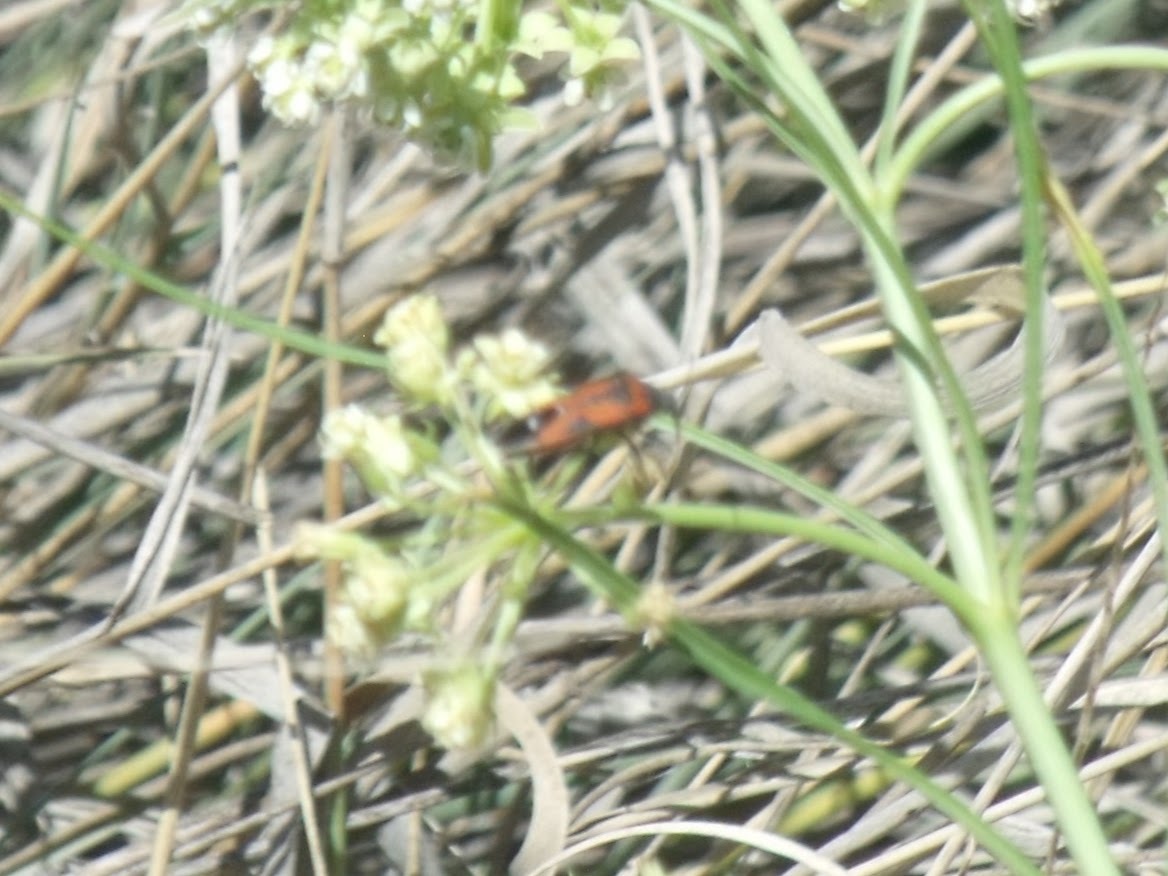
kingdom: Animalia
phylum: Arthropoda
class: Insecta
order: Hemiptera
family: Lygaeidae
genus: Lygaeus
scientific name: Lygaeus reclivatus
